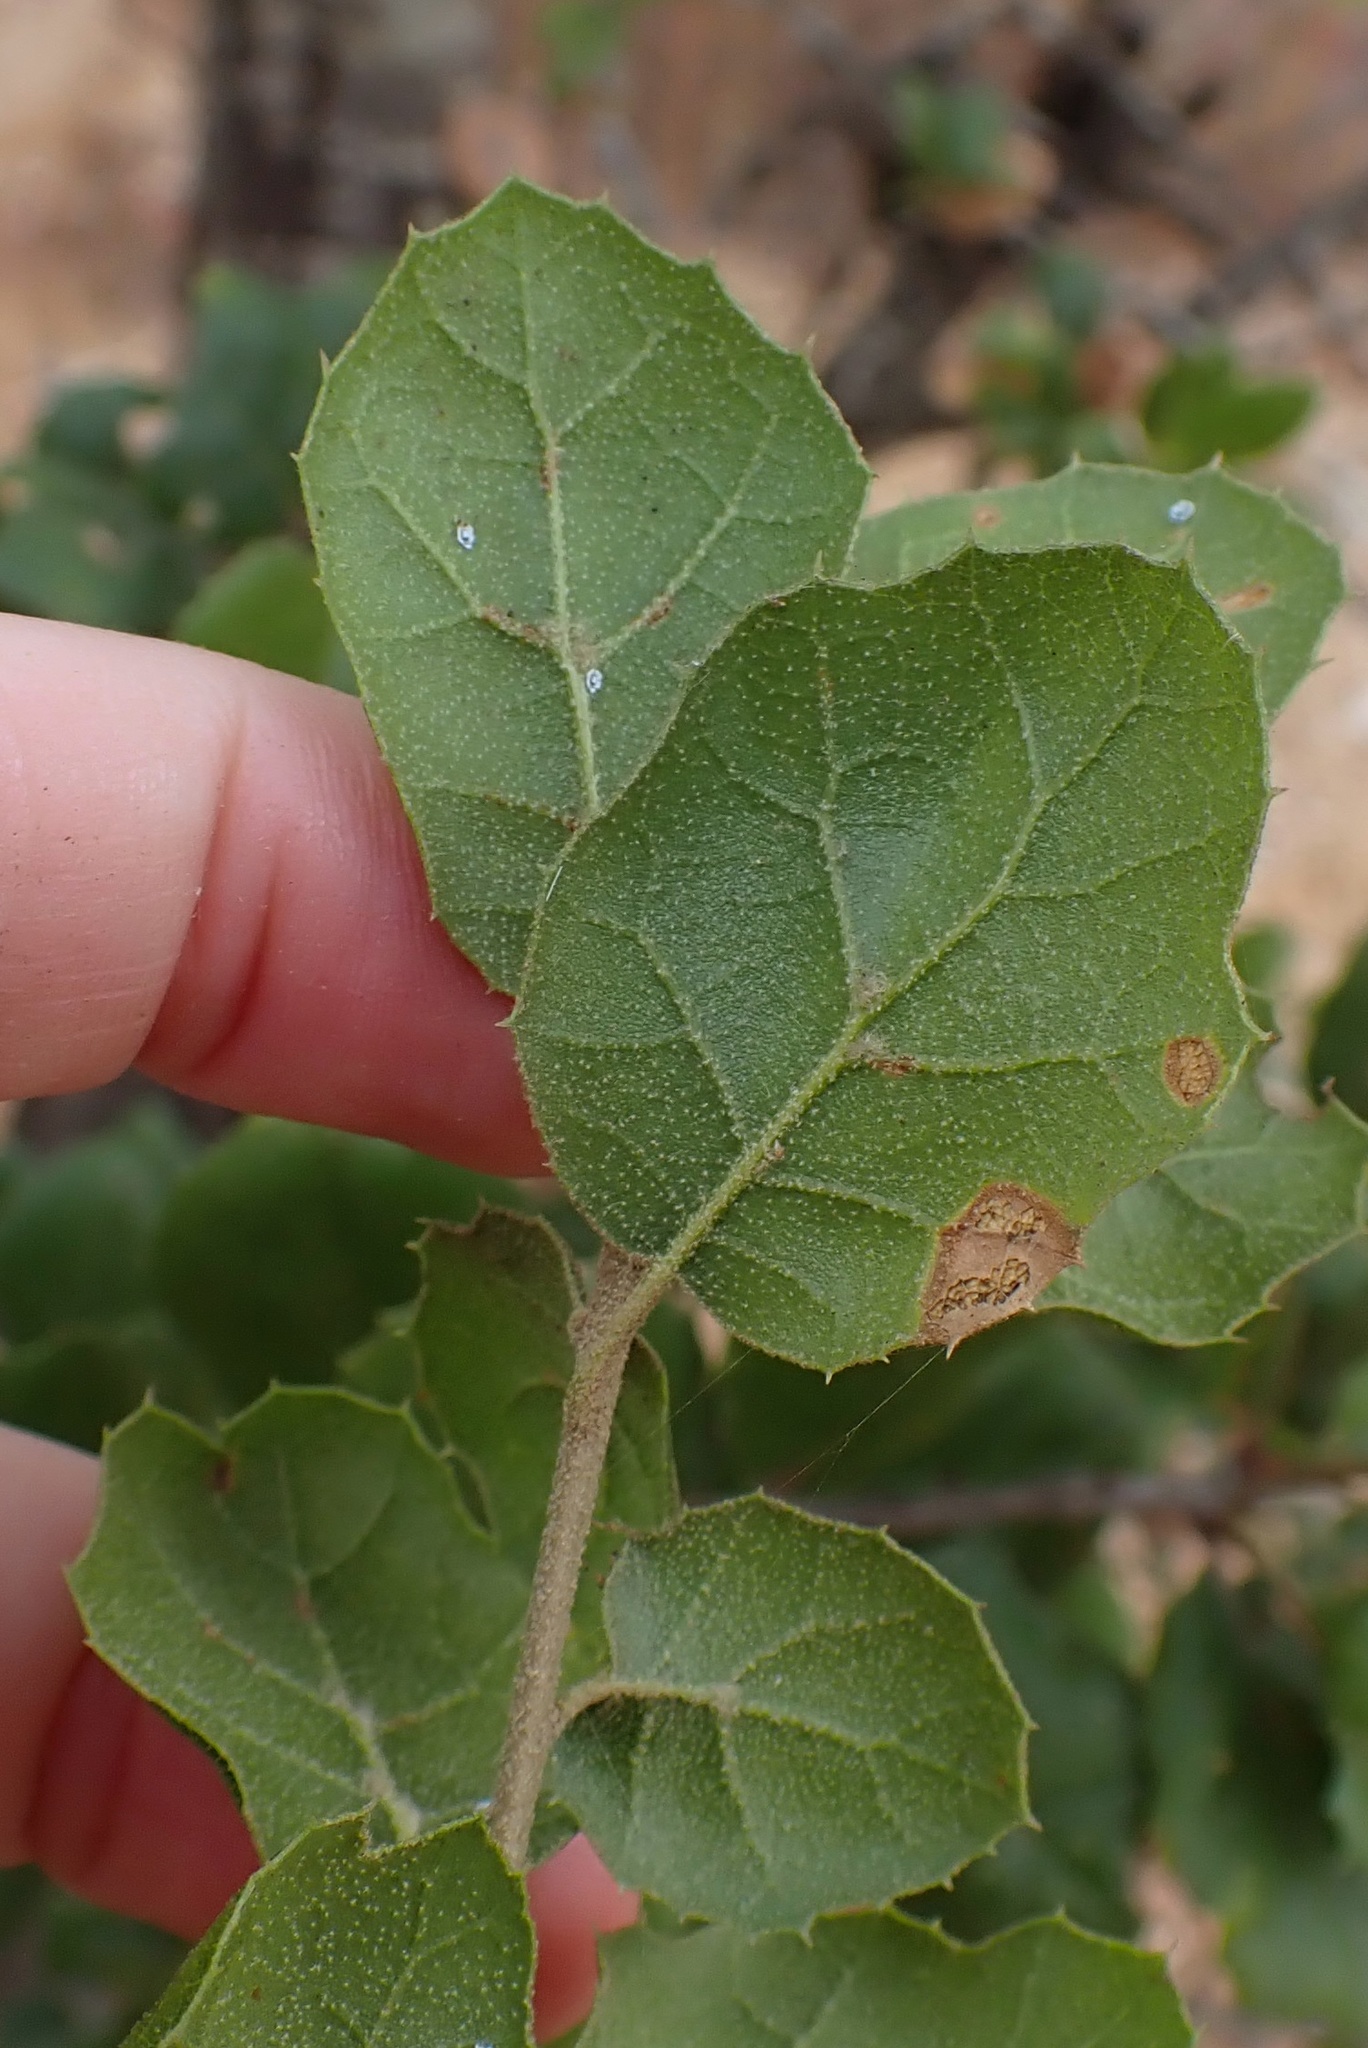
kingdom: Plantae
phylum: Tracheophyta
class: Magnoliopsida
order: Fagales
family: Fagaceae
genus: Quercus
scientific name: Quercus agrifolia
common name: California live oak
